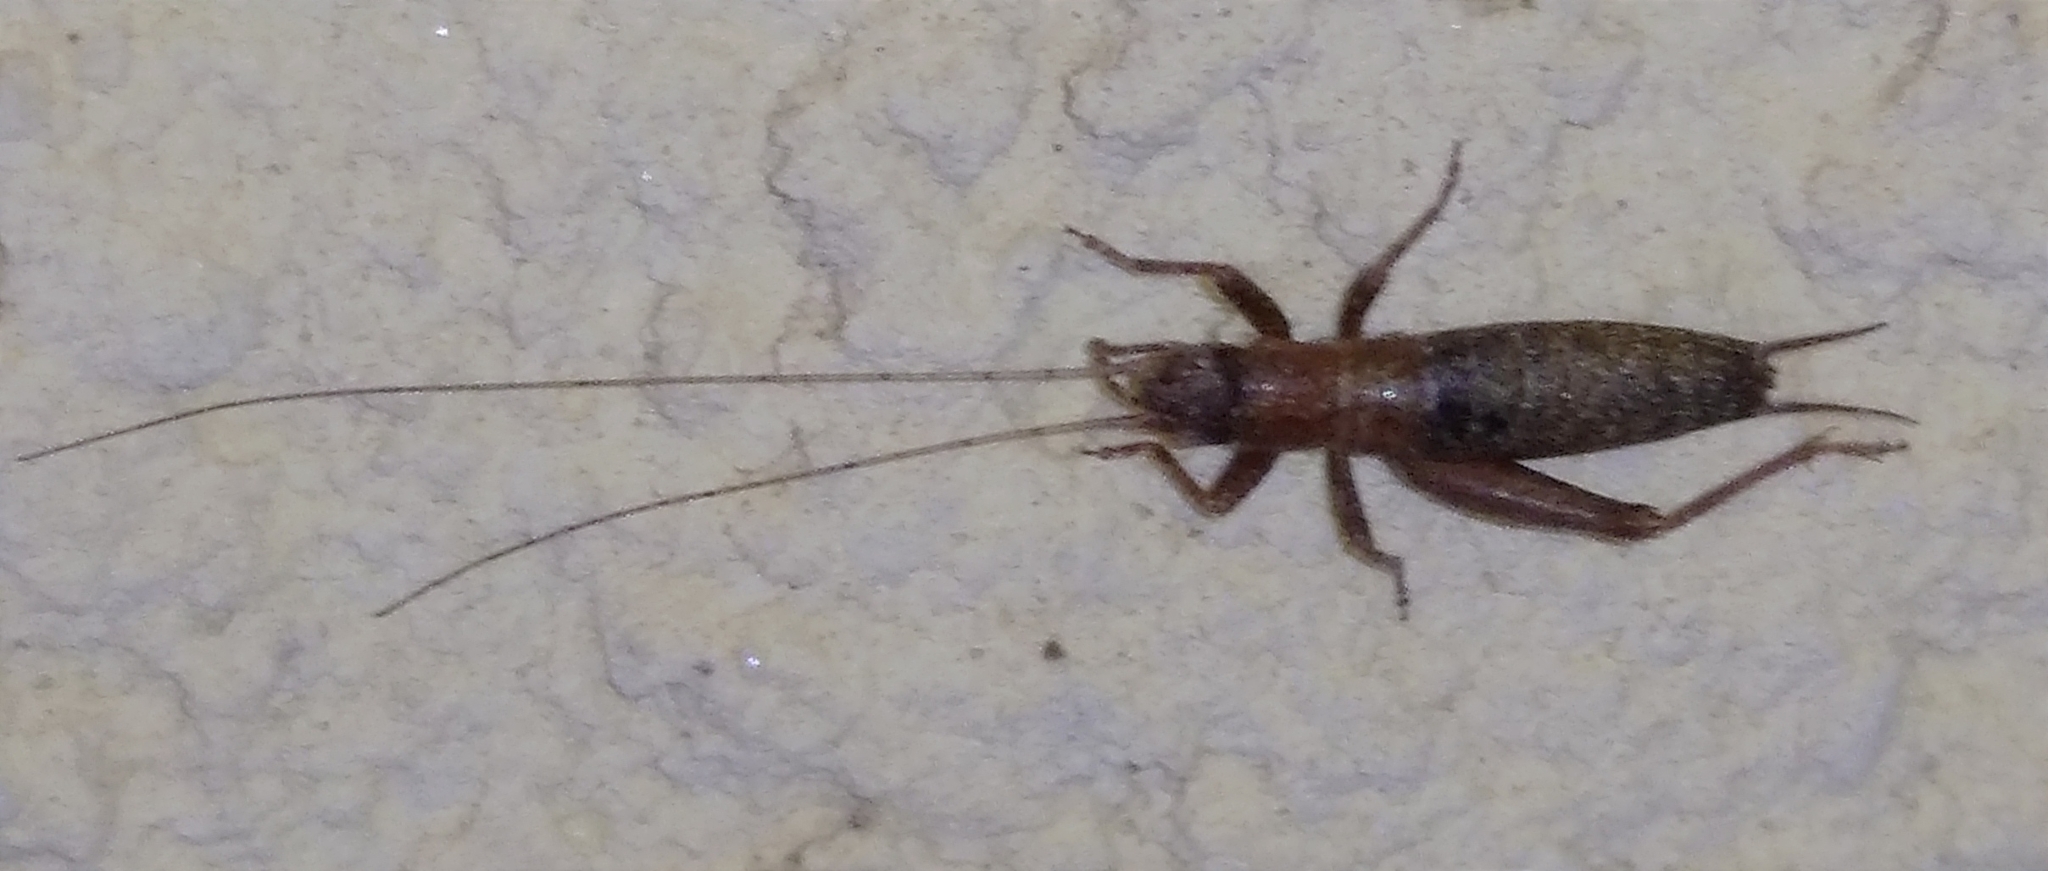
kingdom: Animalia
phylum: Arthropoda
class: Insecta
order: Orthoptera
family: Mogoplistidae
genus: Arachnocephalus
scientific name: Arachnocephalus vestitus
